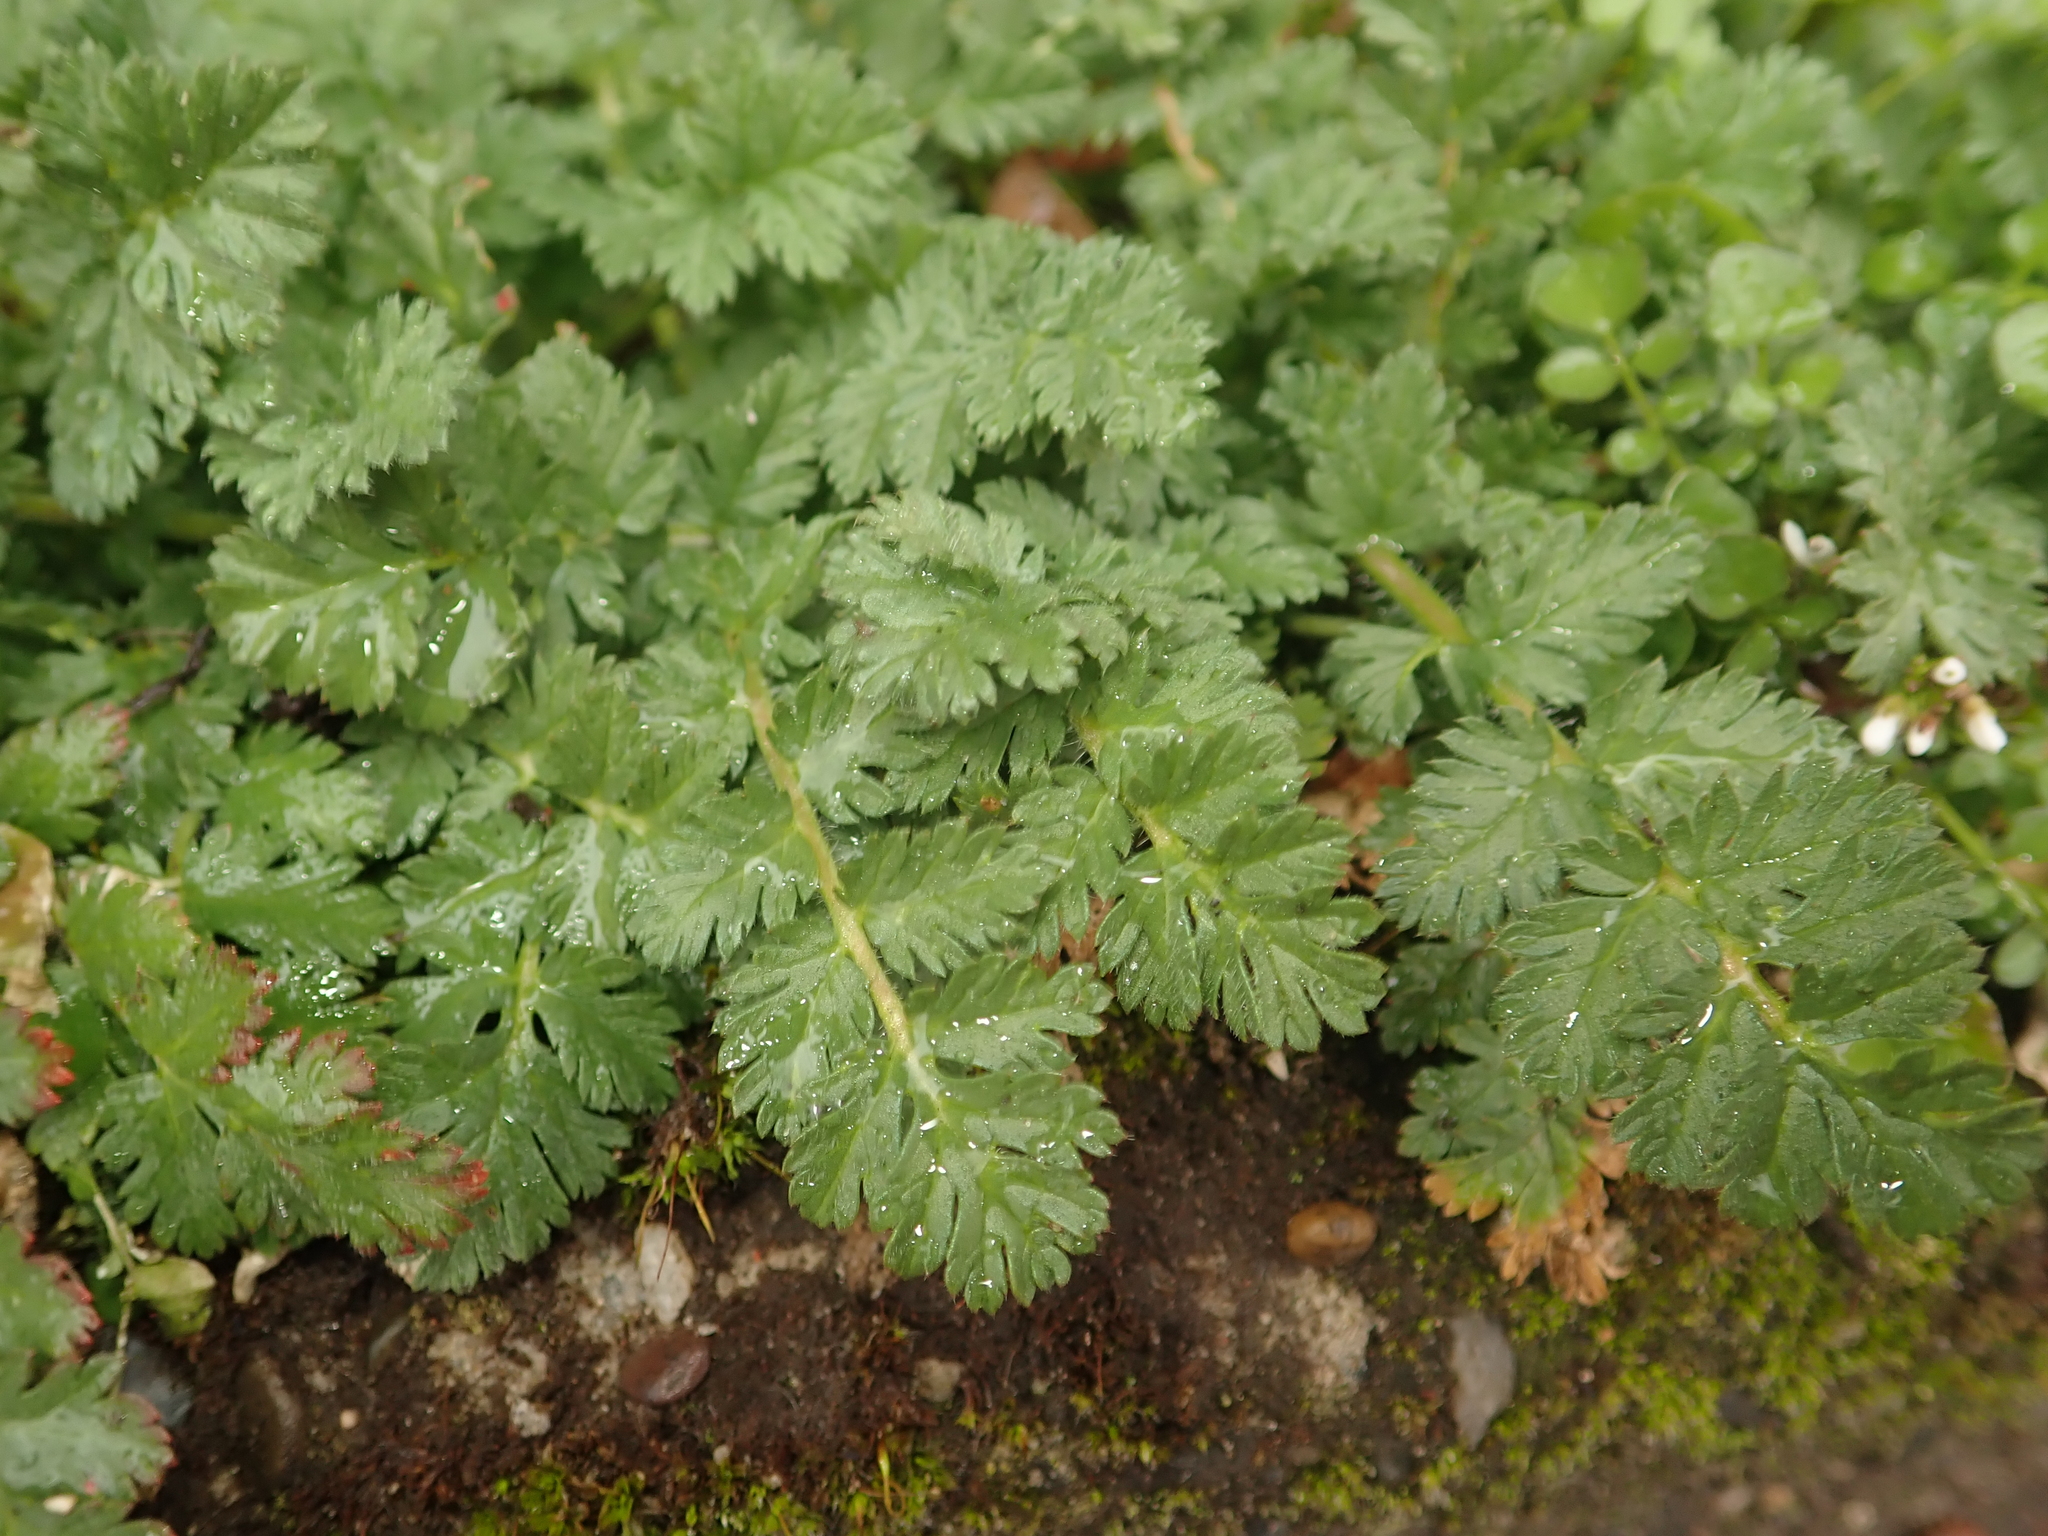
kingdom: Plantae
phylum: Tracheophyta
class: Magnoliopsida
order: Geraniales
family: Geraniaceae
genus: Erodium
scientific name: Erodium cicutarium
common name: Common stork's-bill
